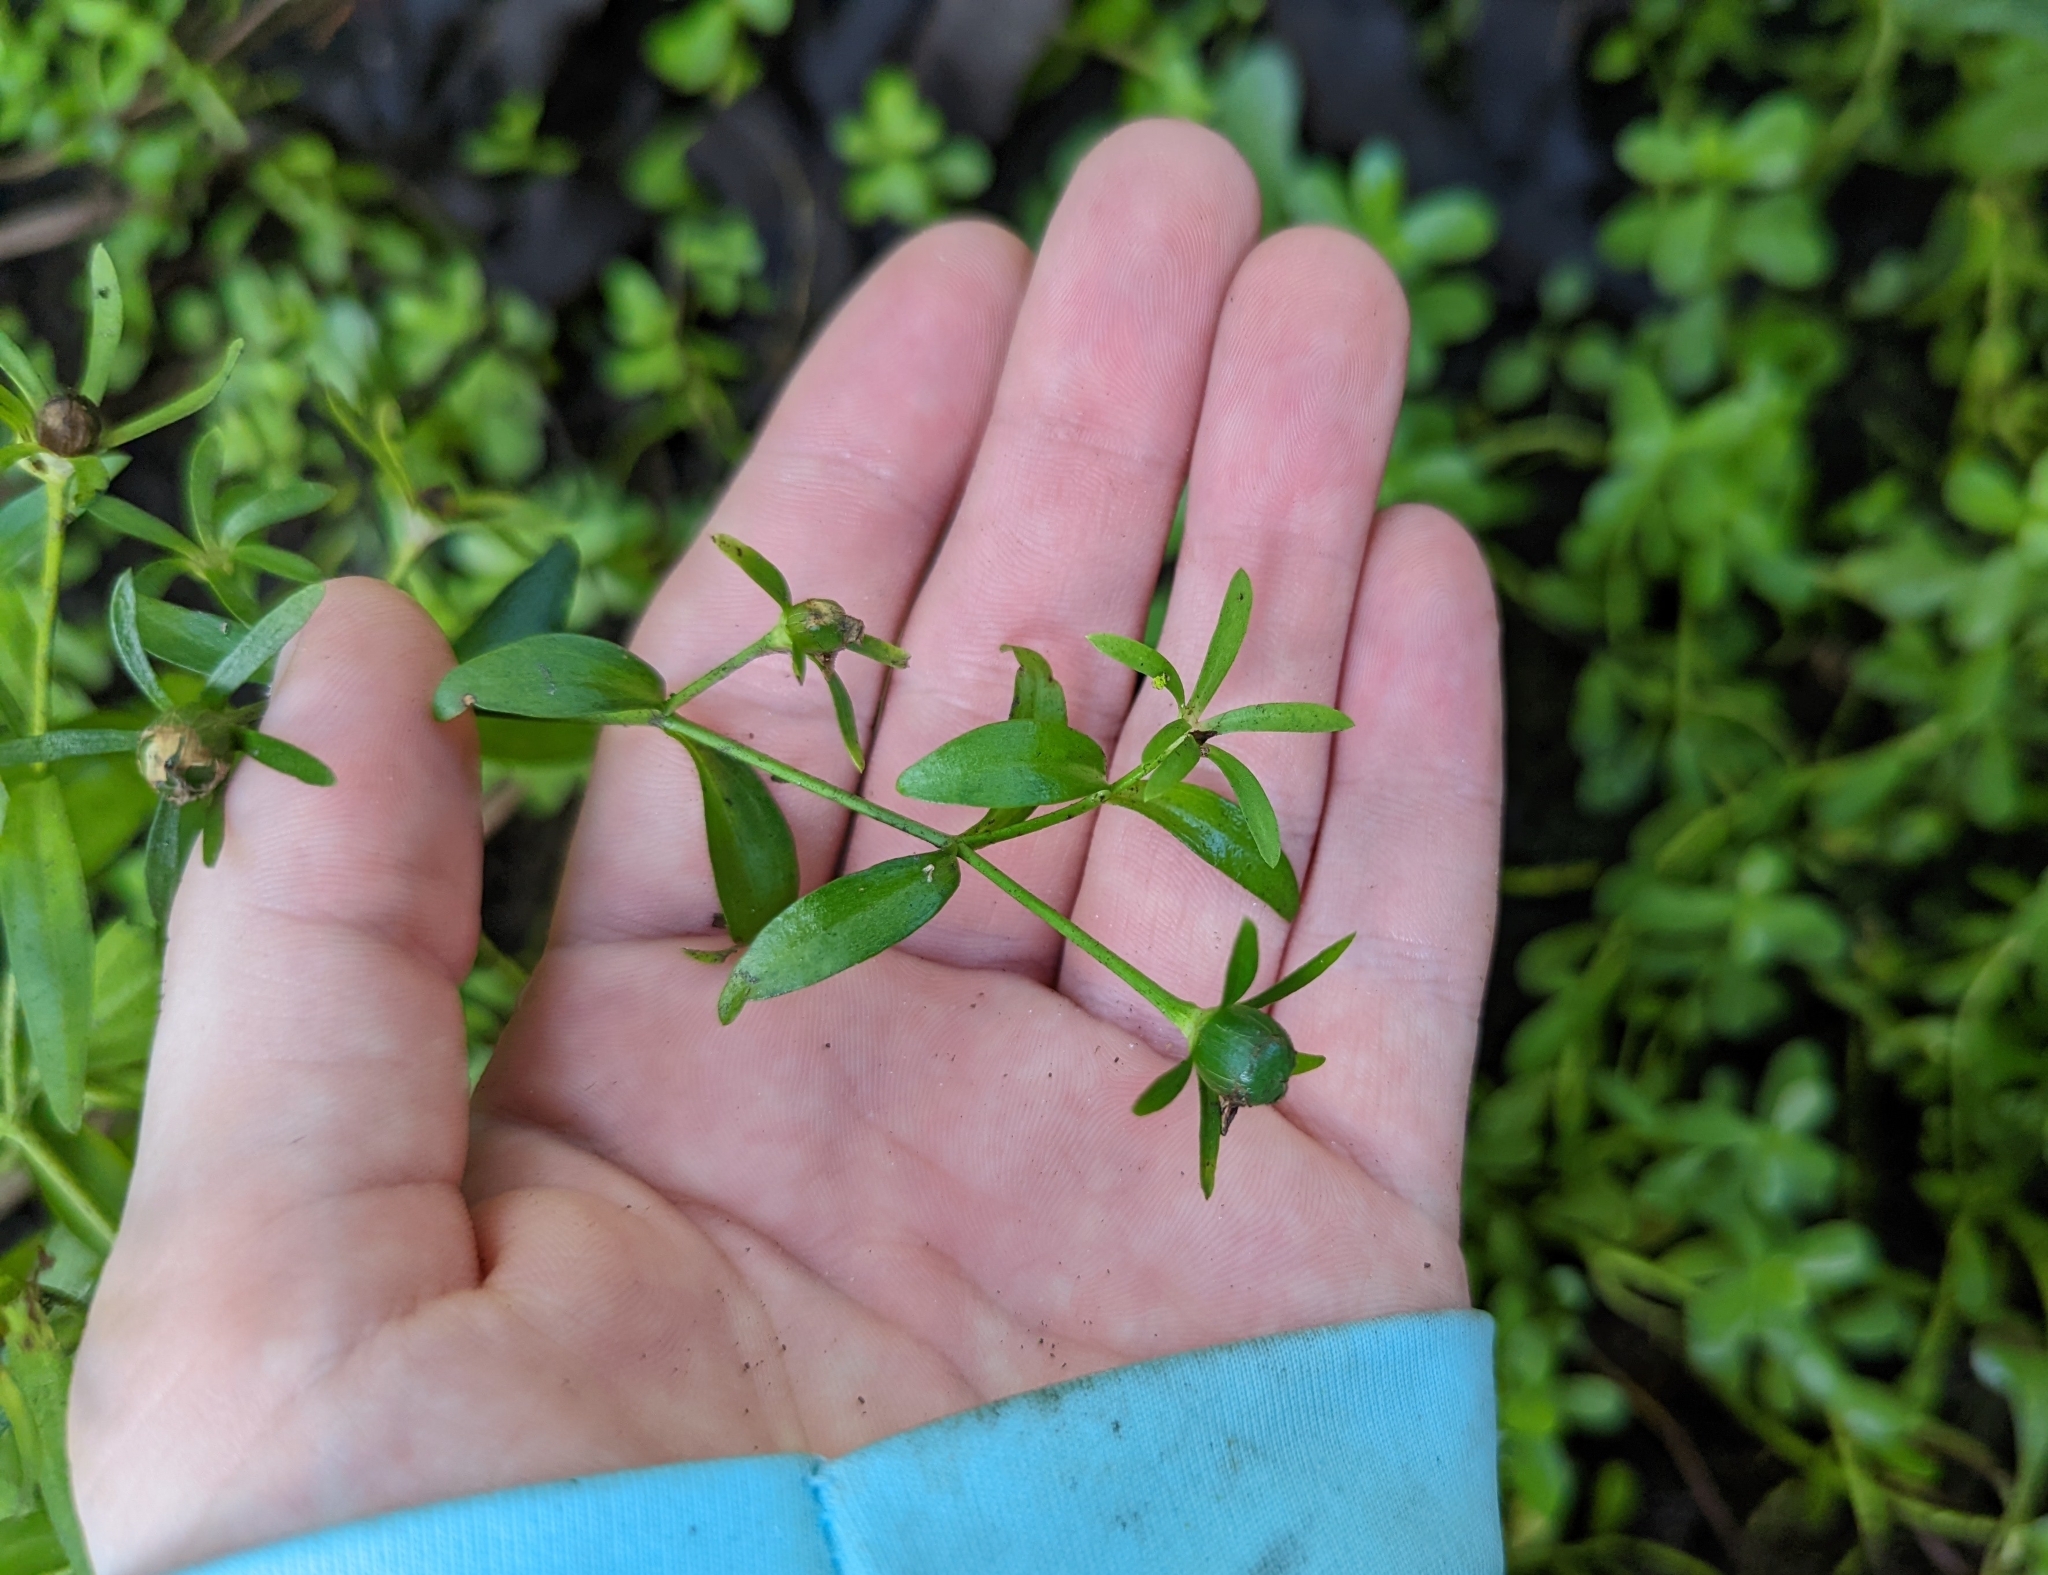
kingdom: Plantae
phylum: Tracheophyta
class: Magnoliopsida
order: Gentianales
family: Gentianaceae
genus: Sabatia
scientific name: Sabatia calycina
